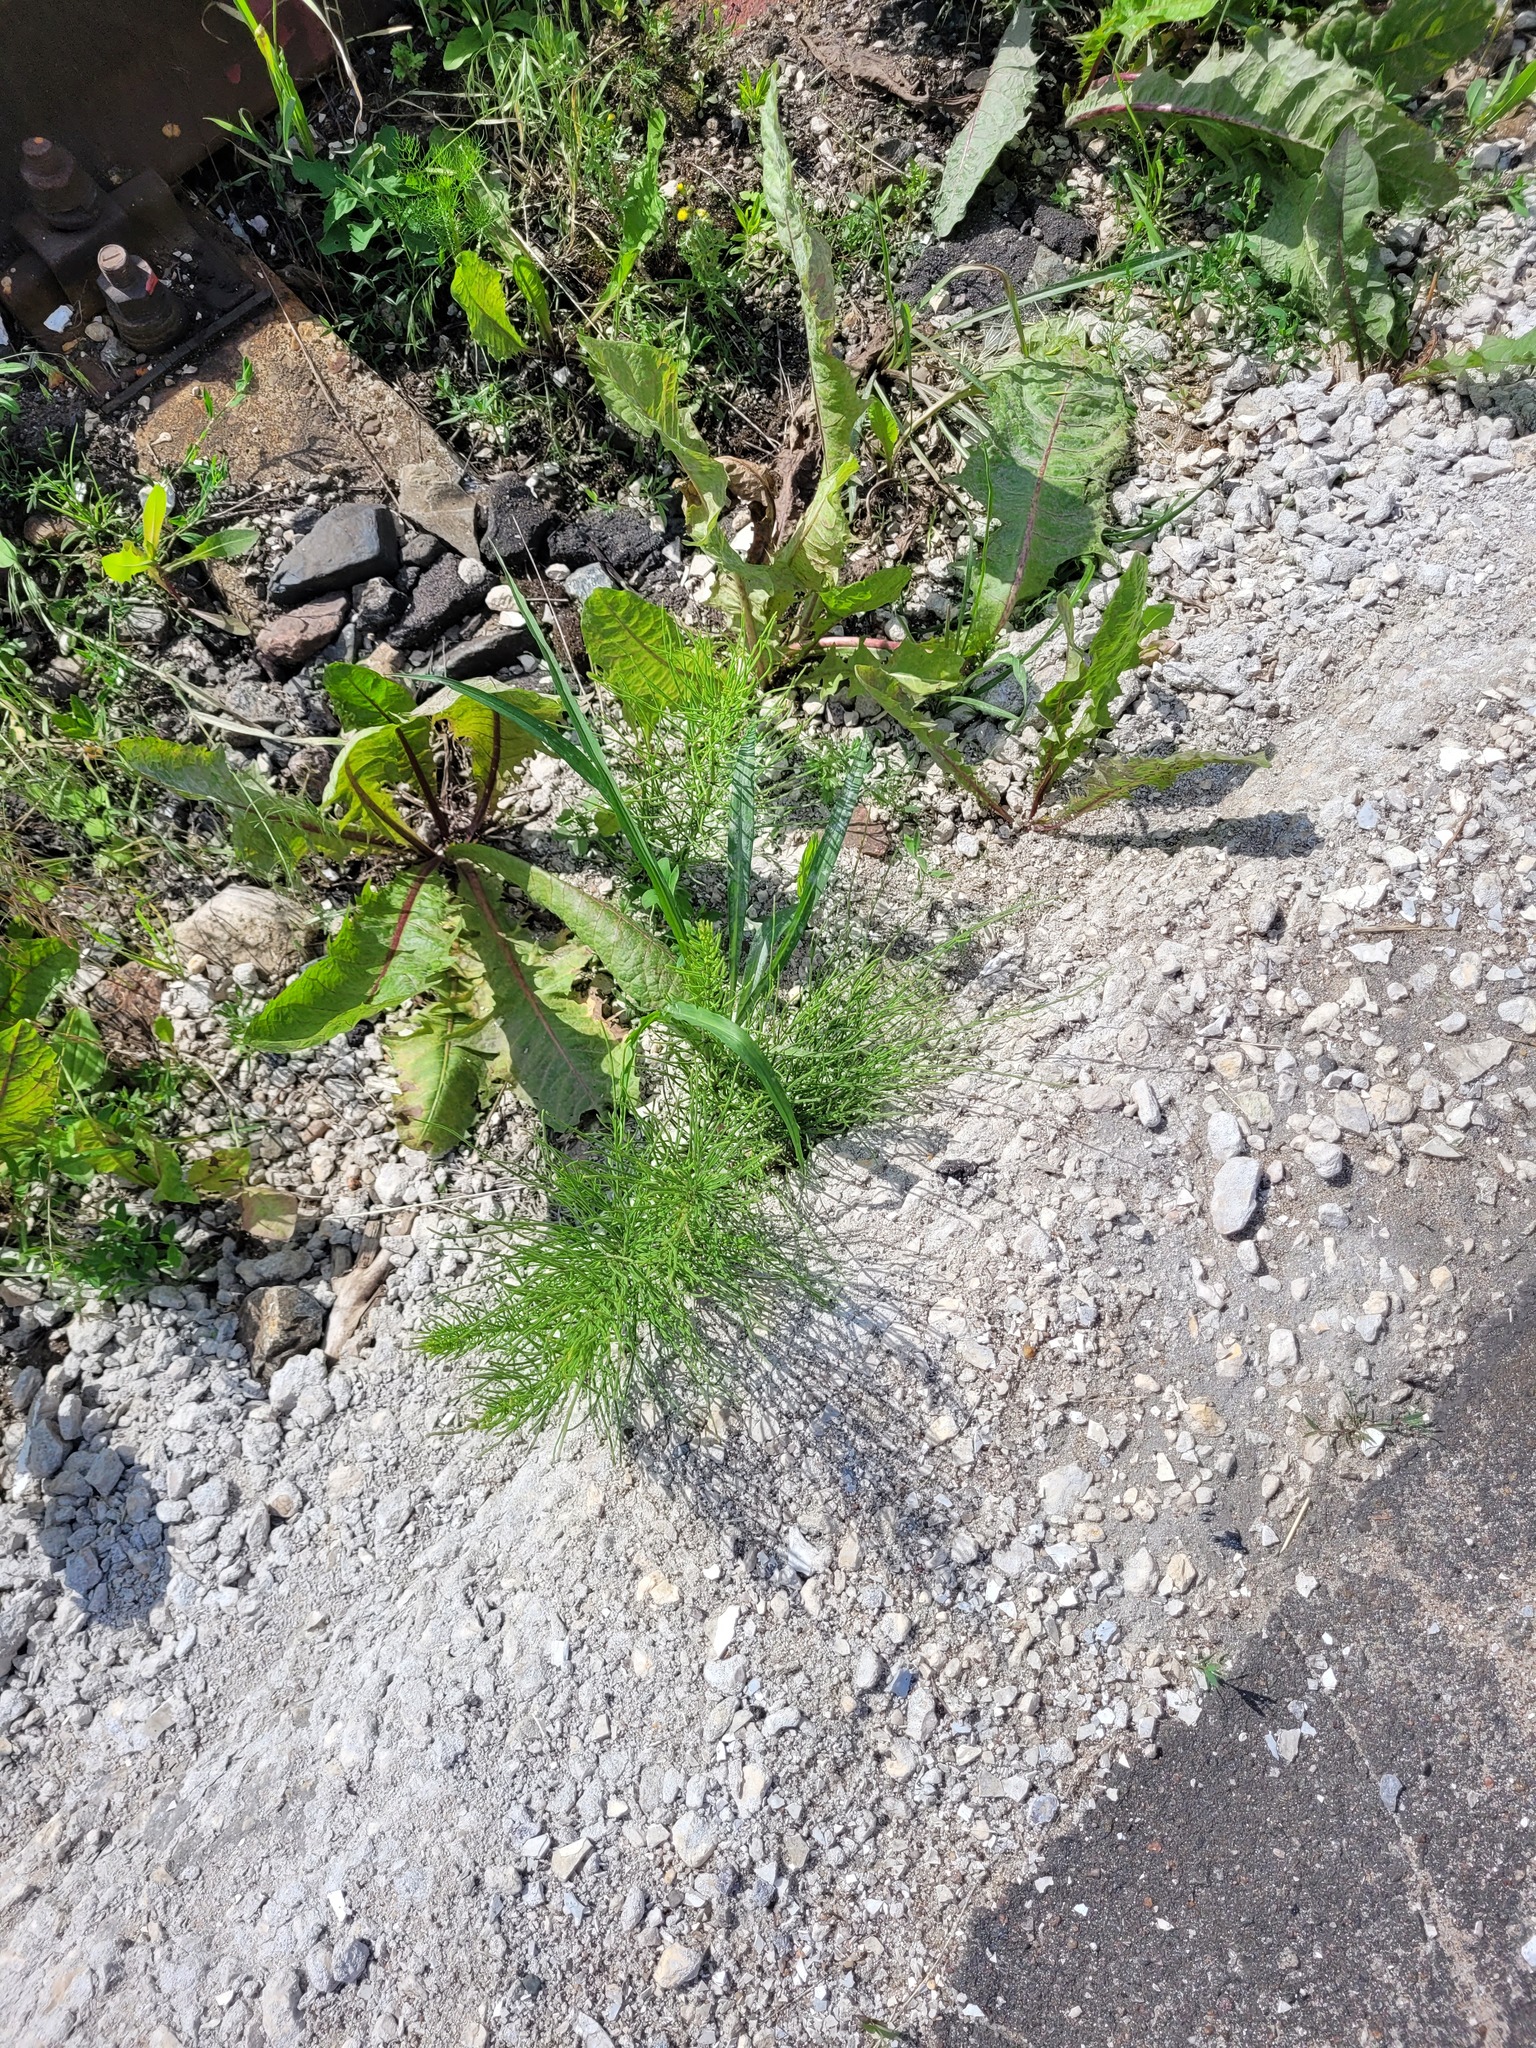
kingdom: Plantae
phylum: Tracheophyta
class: Polypodiopsida
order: Equisetales
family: Equisetaceae
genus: Equisetum
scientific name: Equisetum arvense
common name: Field horsetail
